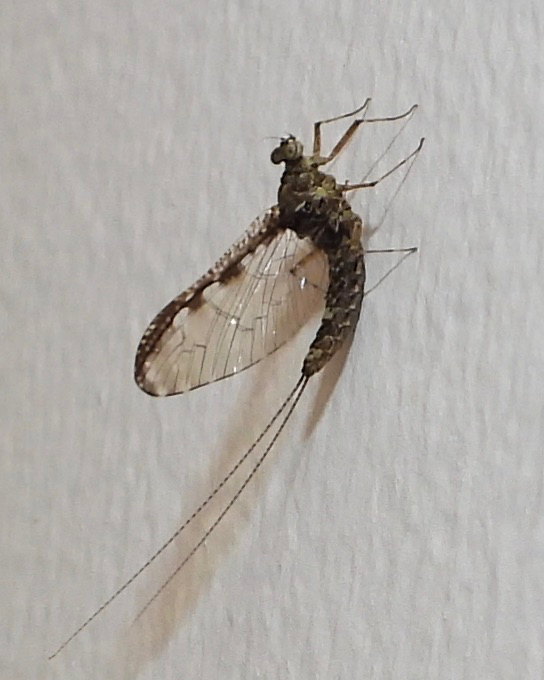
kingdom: Animalia
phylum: Arthropoda
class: Insecta
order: Ephemeroptera
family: Baetidae
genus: Callibaetis
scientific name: Callibaetis pictus
